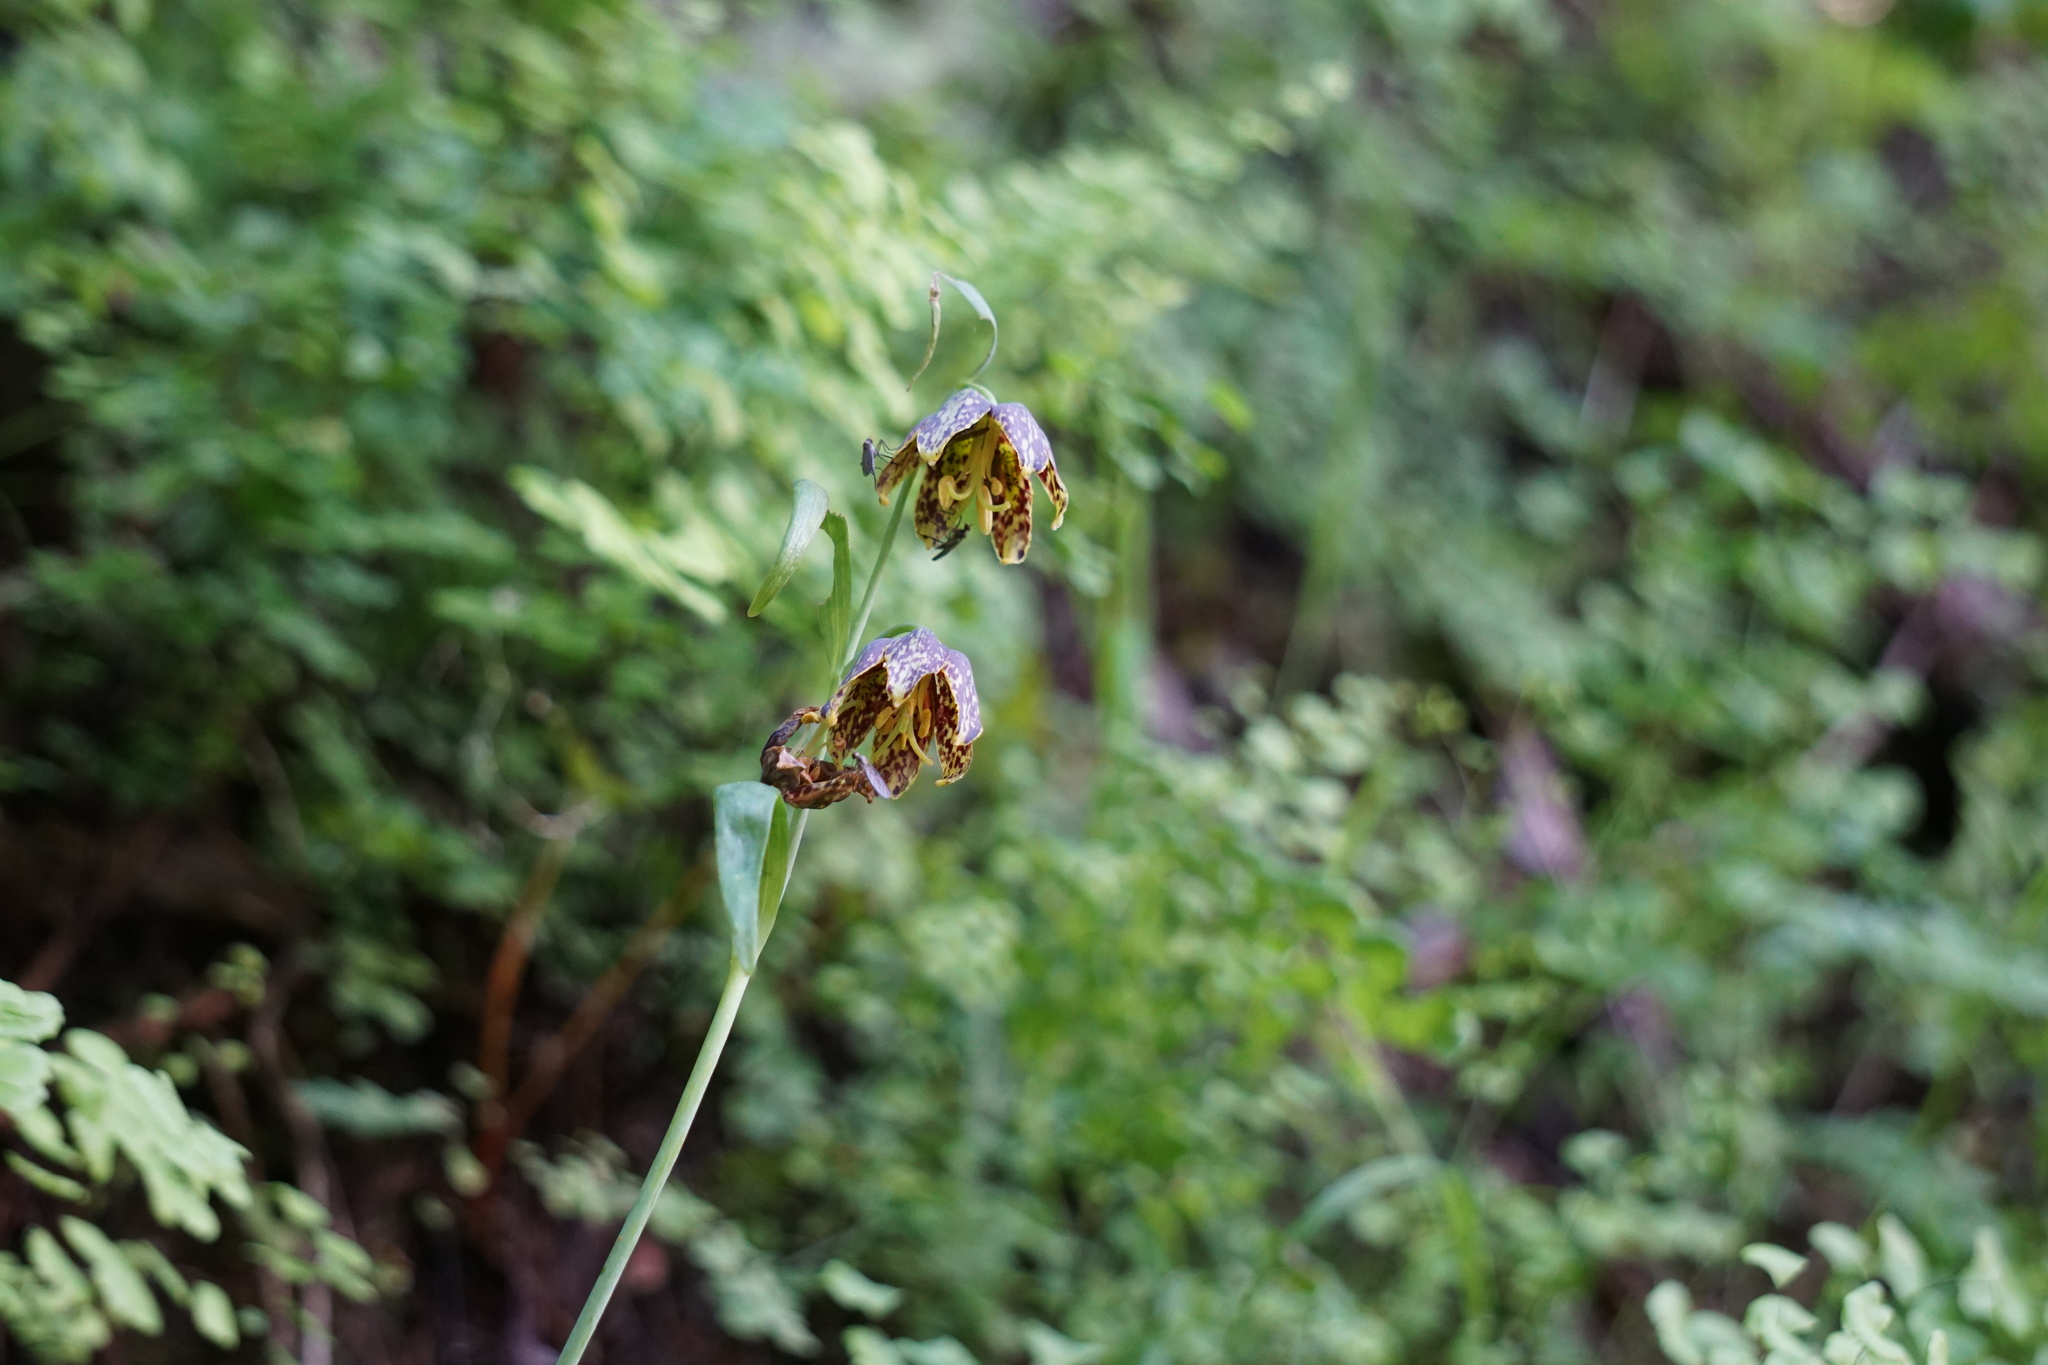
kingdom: Plantae
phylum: Tracheophyta
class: Liliopsida
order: Liliales
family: Liliaceae
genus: Fritillaria
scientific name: Fritillaria affinis
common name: Ojai fritillary
